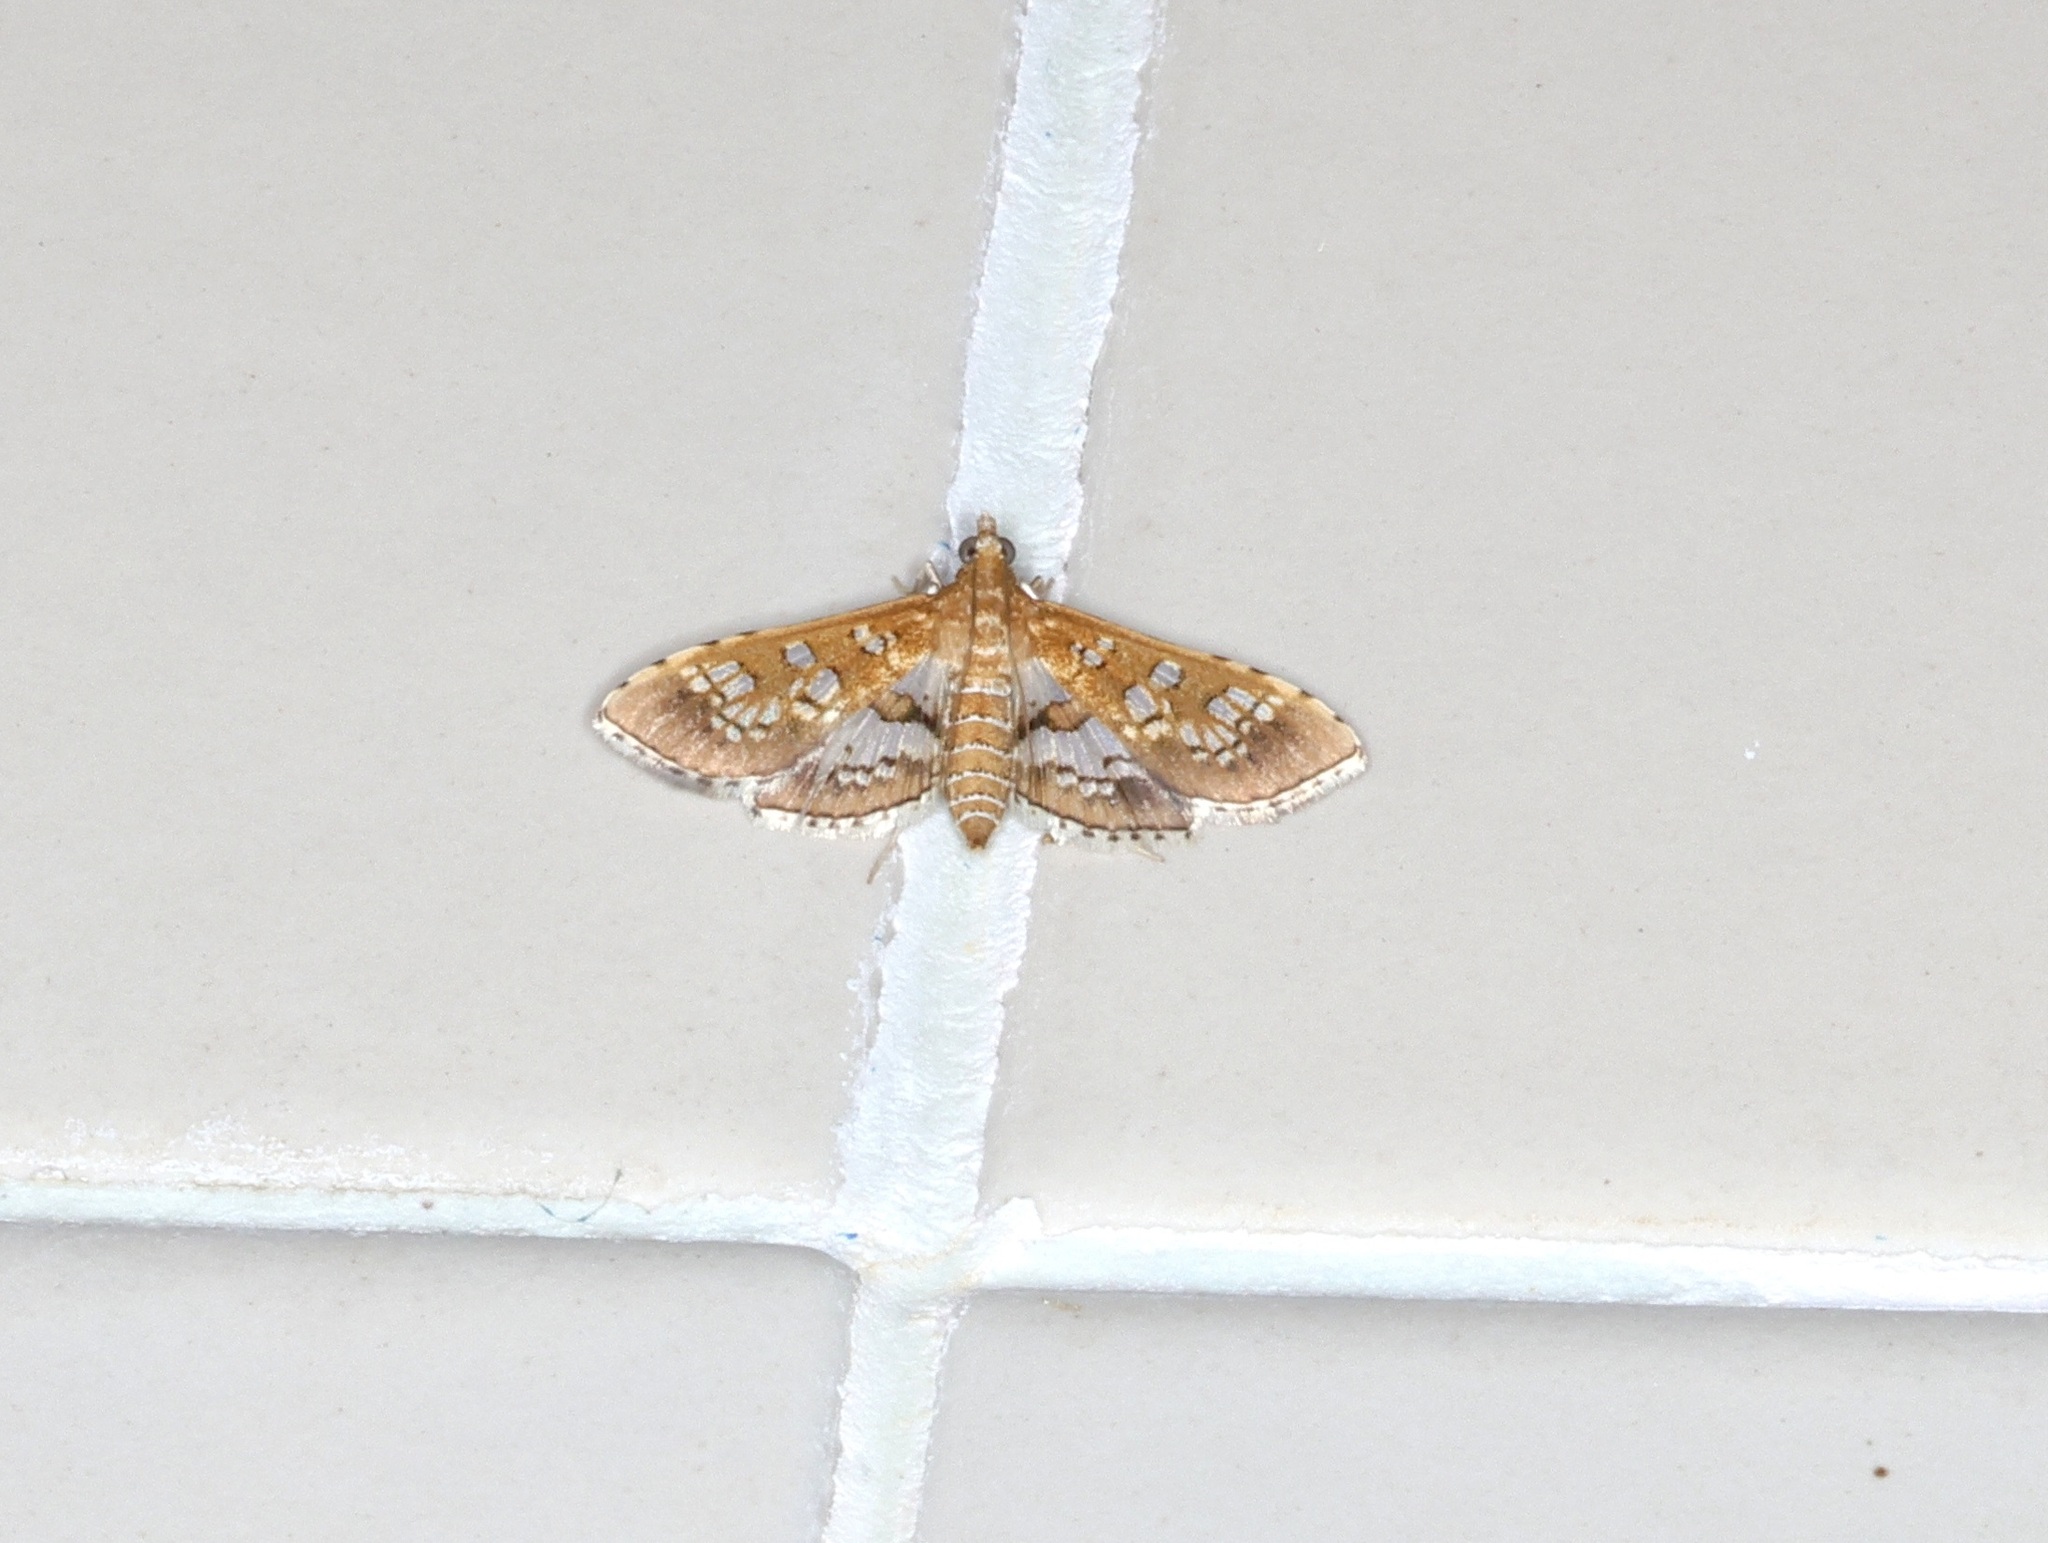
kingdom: Animalia
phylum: Arthropoda
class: Insecta
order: Lepidoptera
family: Crambidae
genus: Sameodes
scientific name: Sameodes cancellalis
